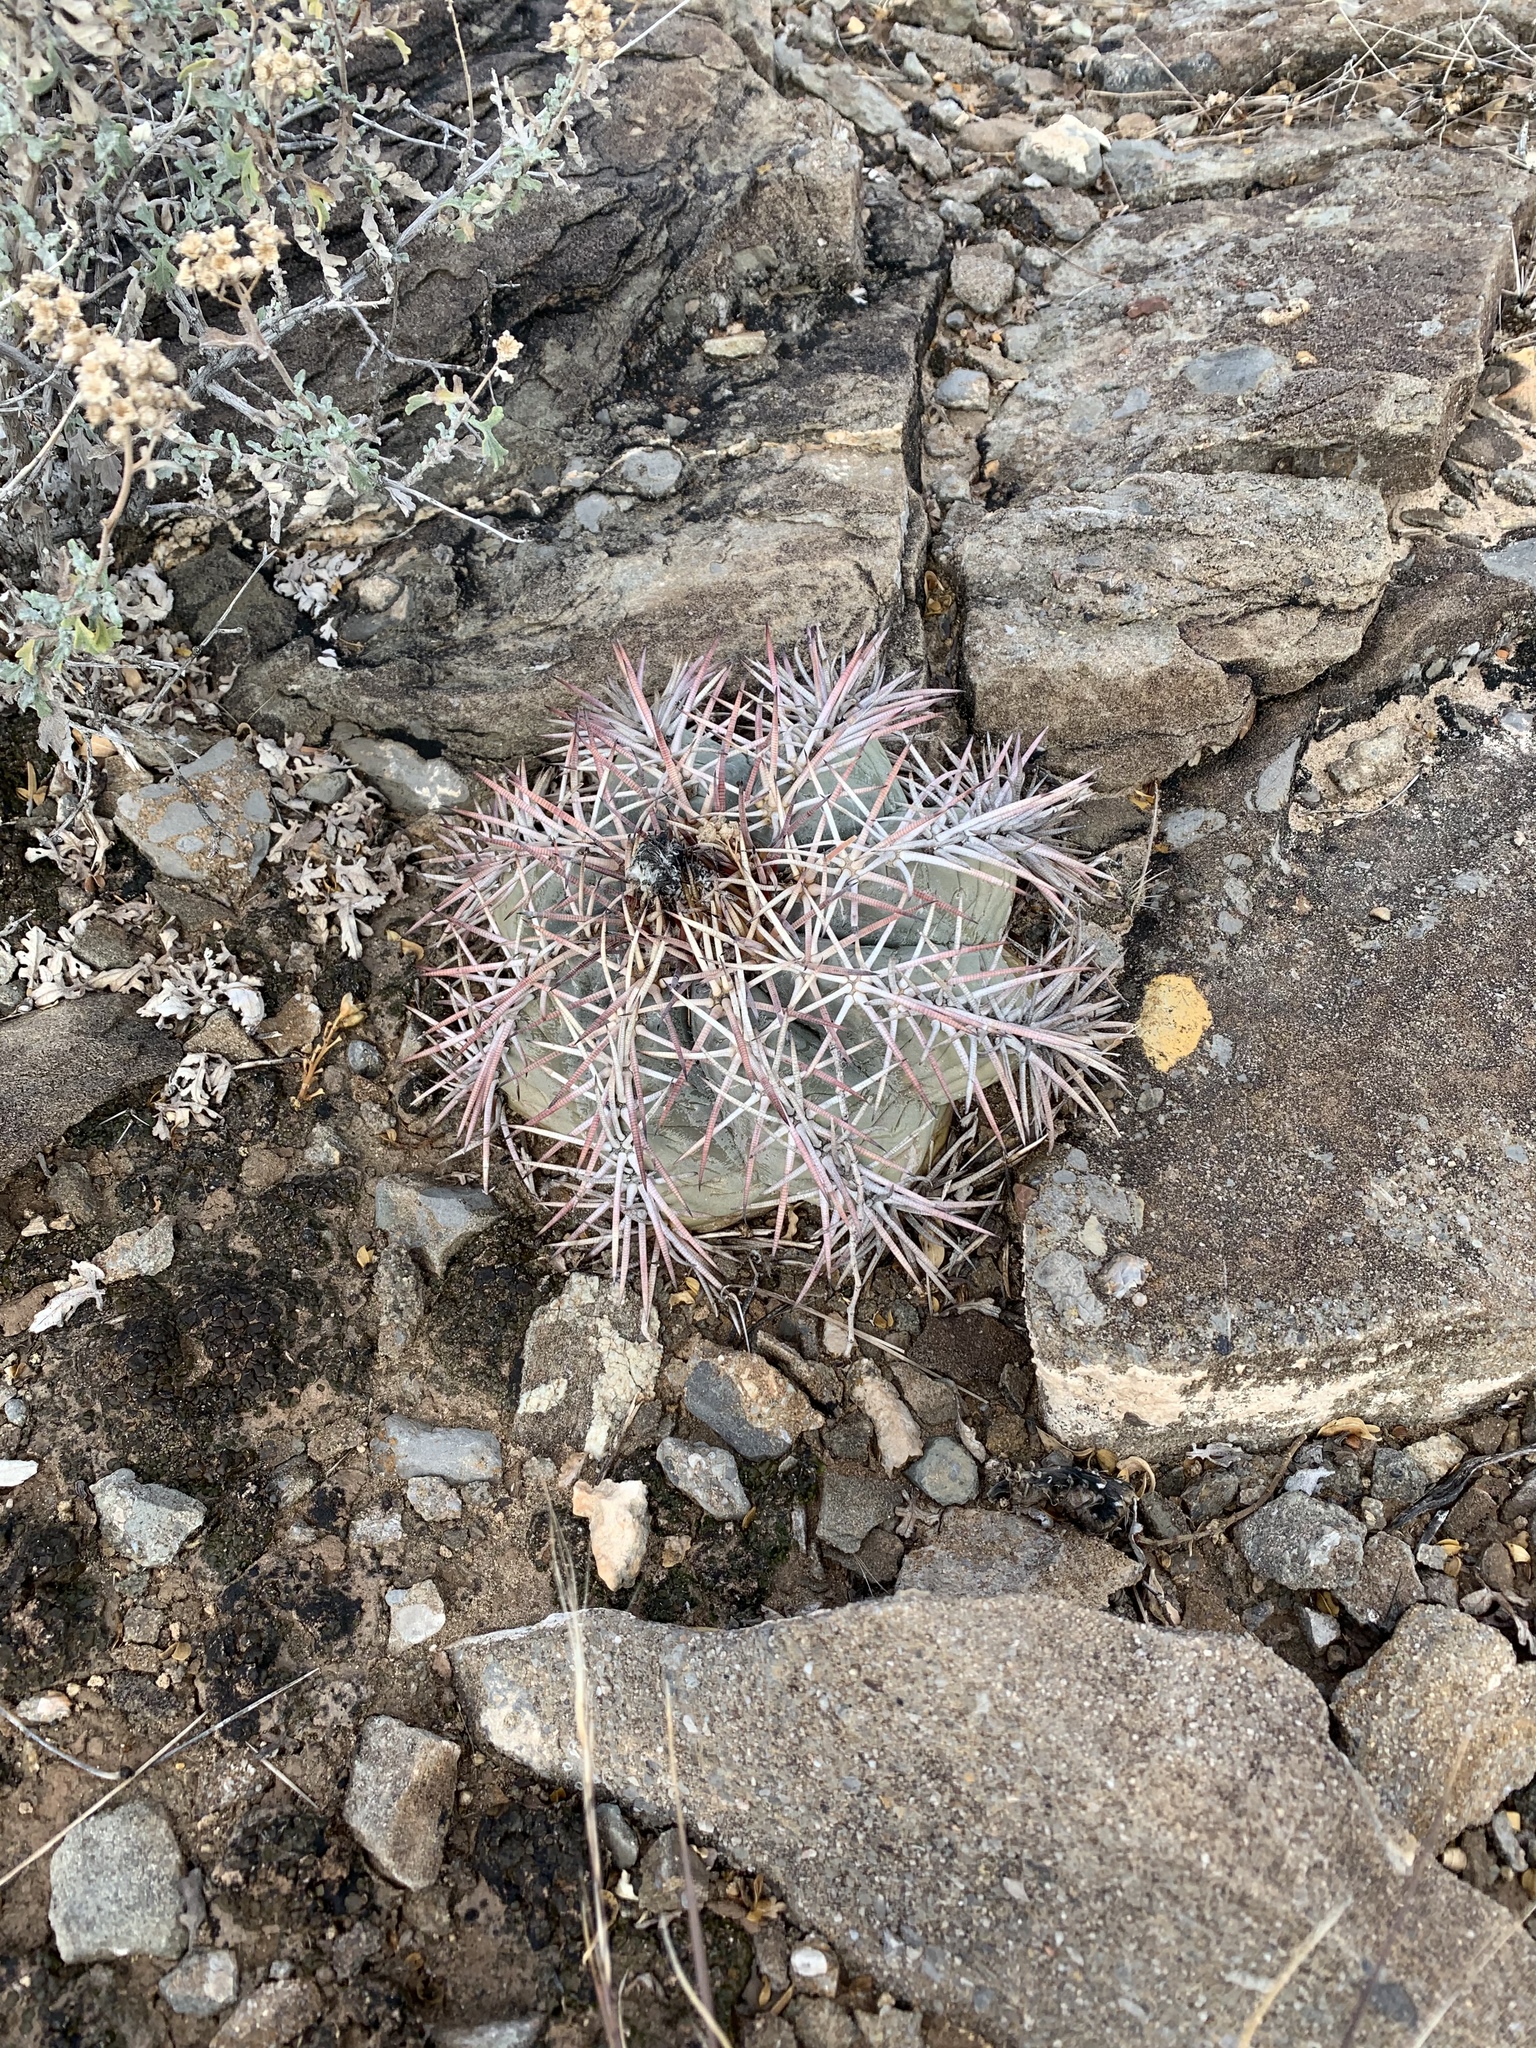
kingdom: Plantae
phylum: Tracheophyta
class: Magnoliopsida
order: Caryophyllales
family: Cactaceae
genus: Echinocactus
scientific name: Echinocactus horizonthalonius
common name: Devilshead
